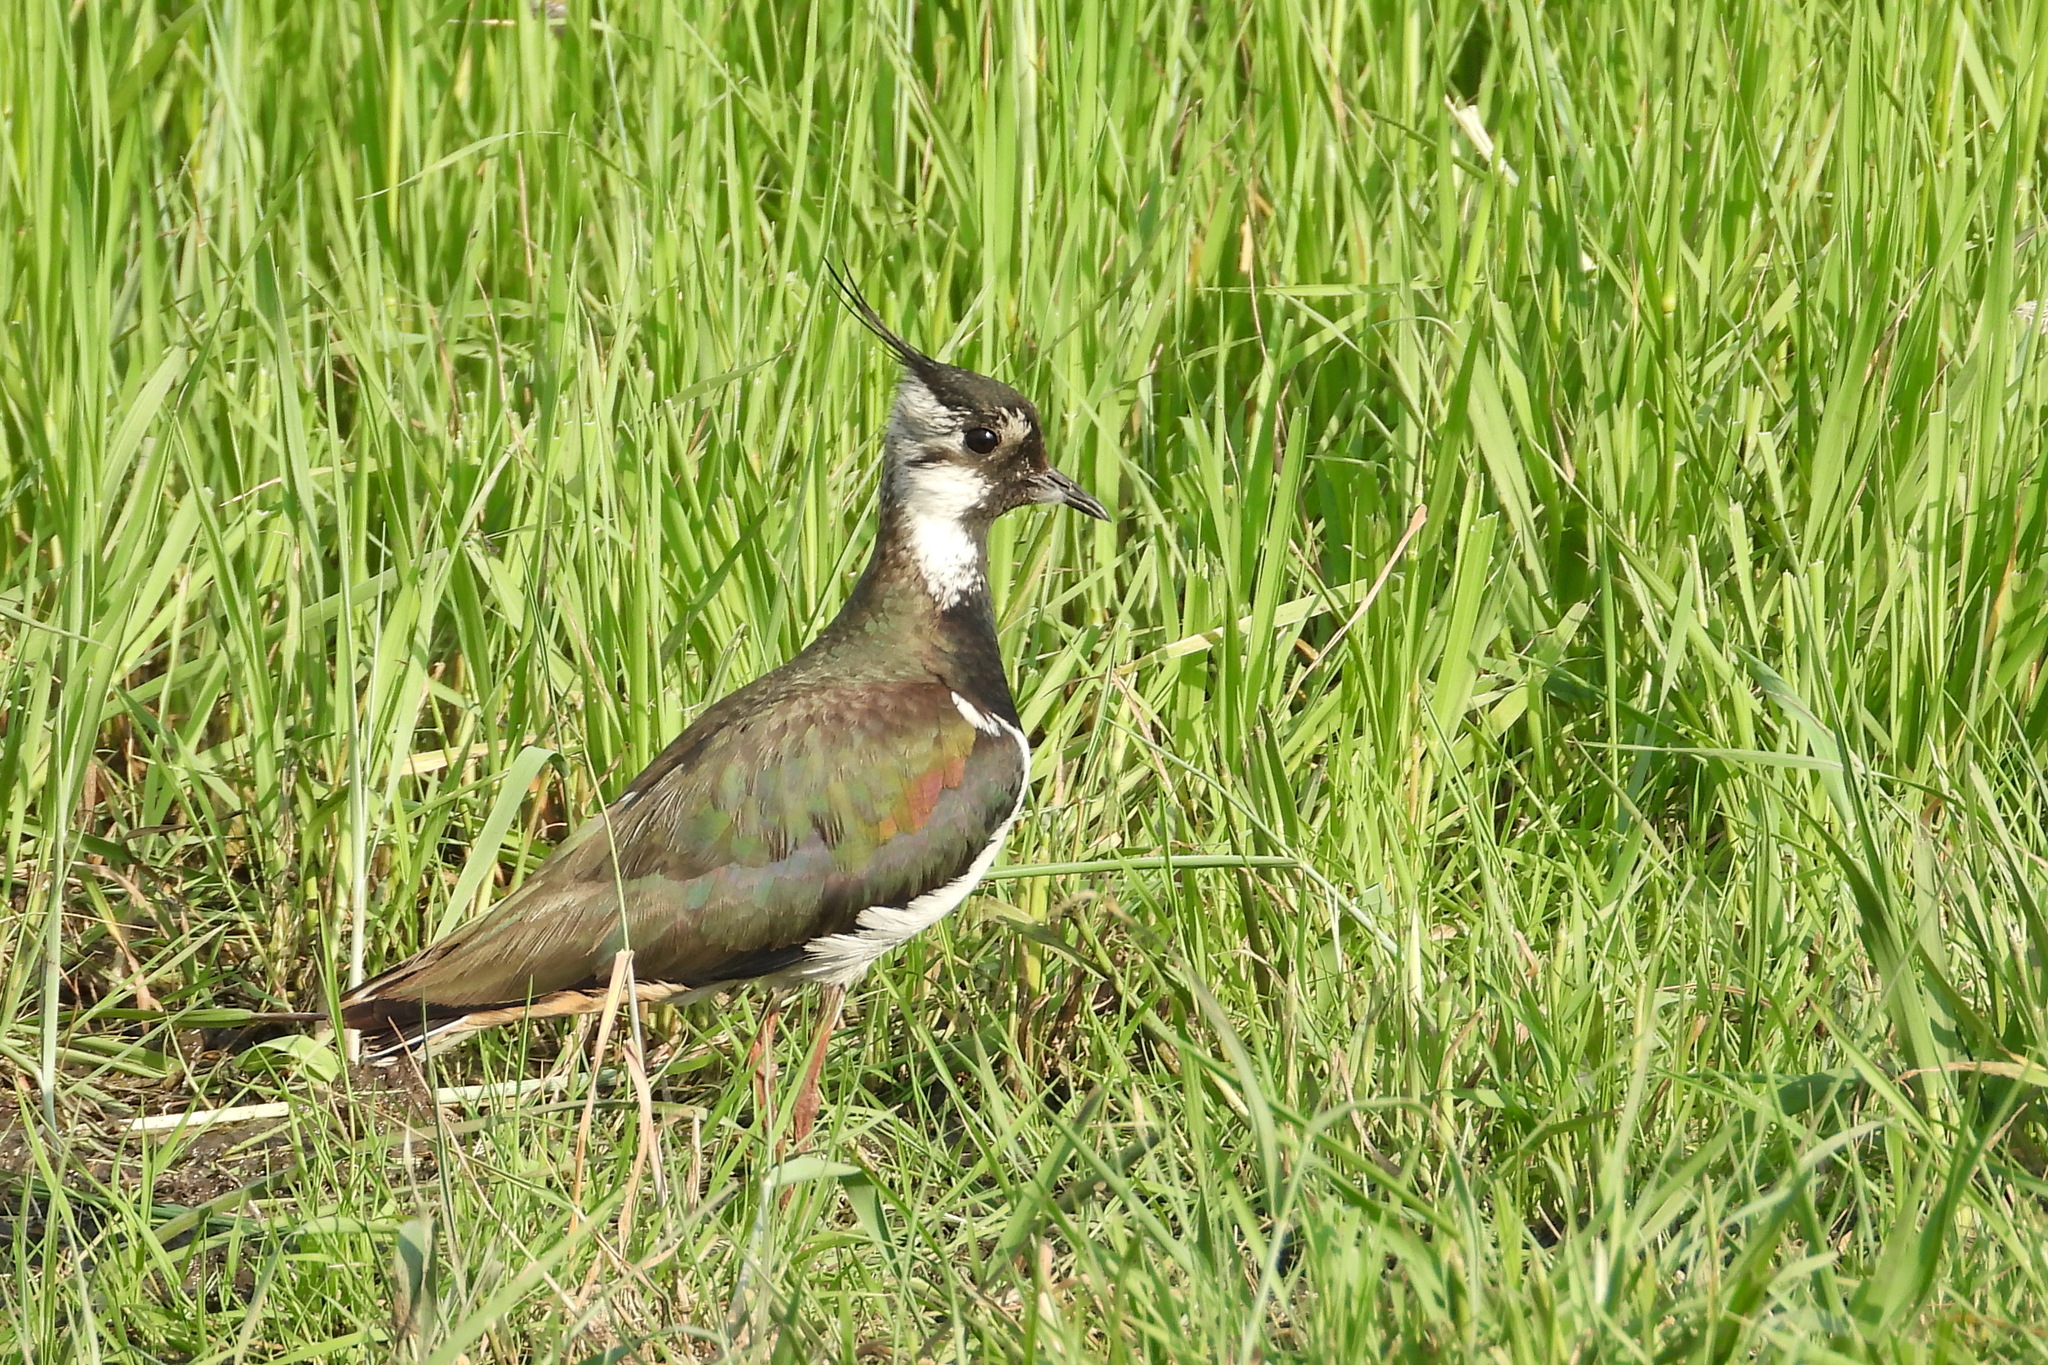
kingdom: Animalia
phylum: Chordata
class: Aves
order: Charadriiformes
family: Charadriidae
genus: Vanellus
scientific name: Vanellus vanellus
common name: Northern lapwing
